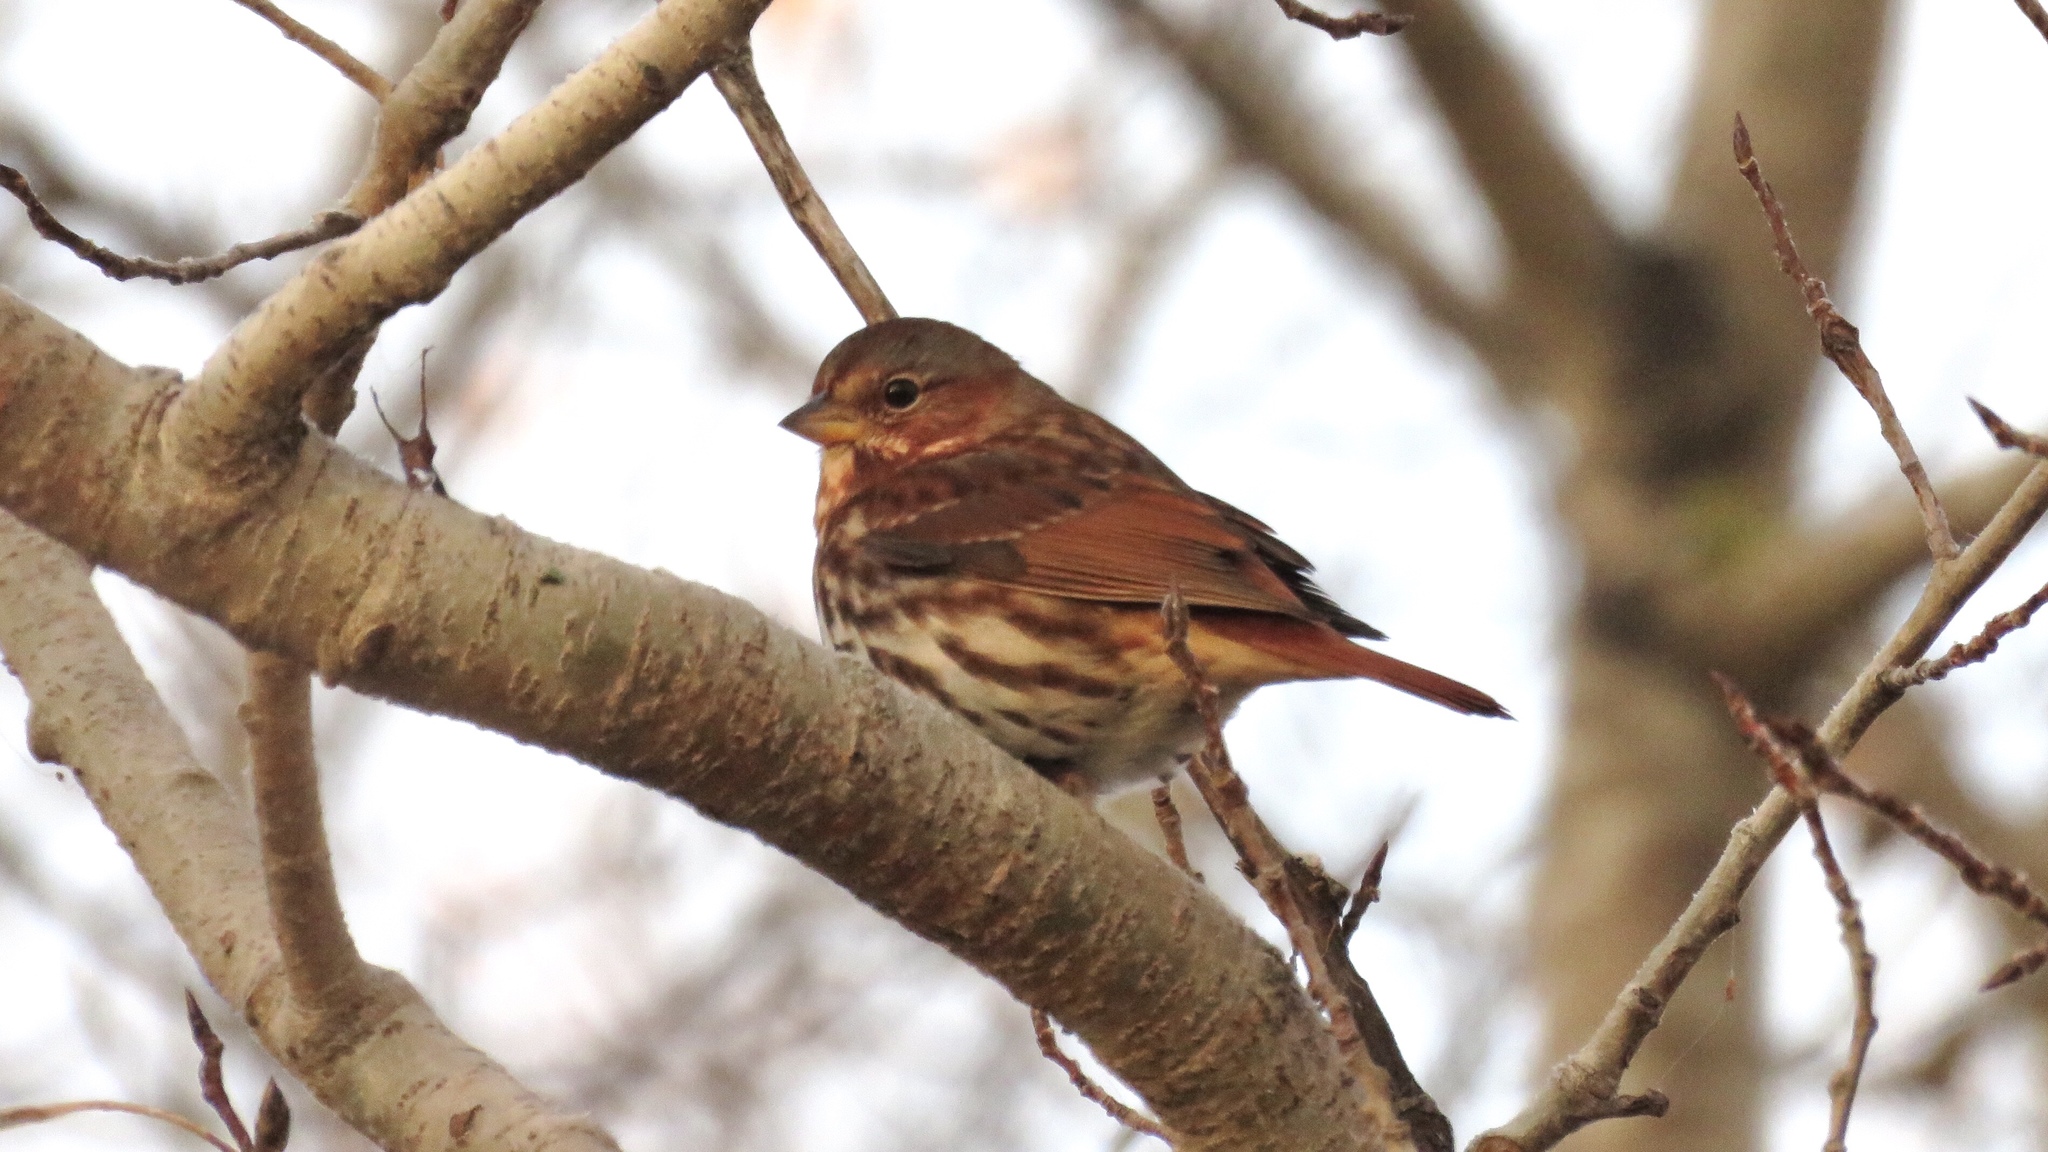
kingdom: Animalia
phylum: Chordata
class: Aves
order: Passeriformes
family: Passerellidae
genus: Passerella
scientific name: Passerella iliaca
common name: Fox sparrow
